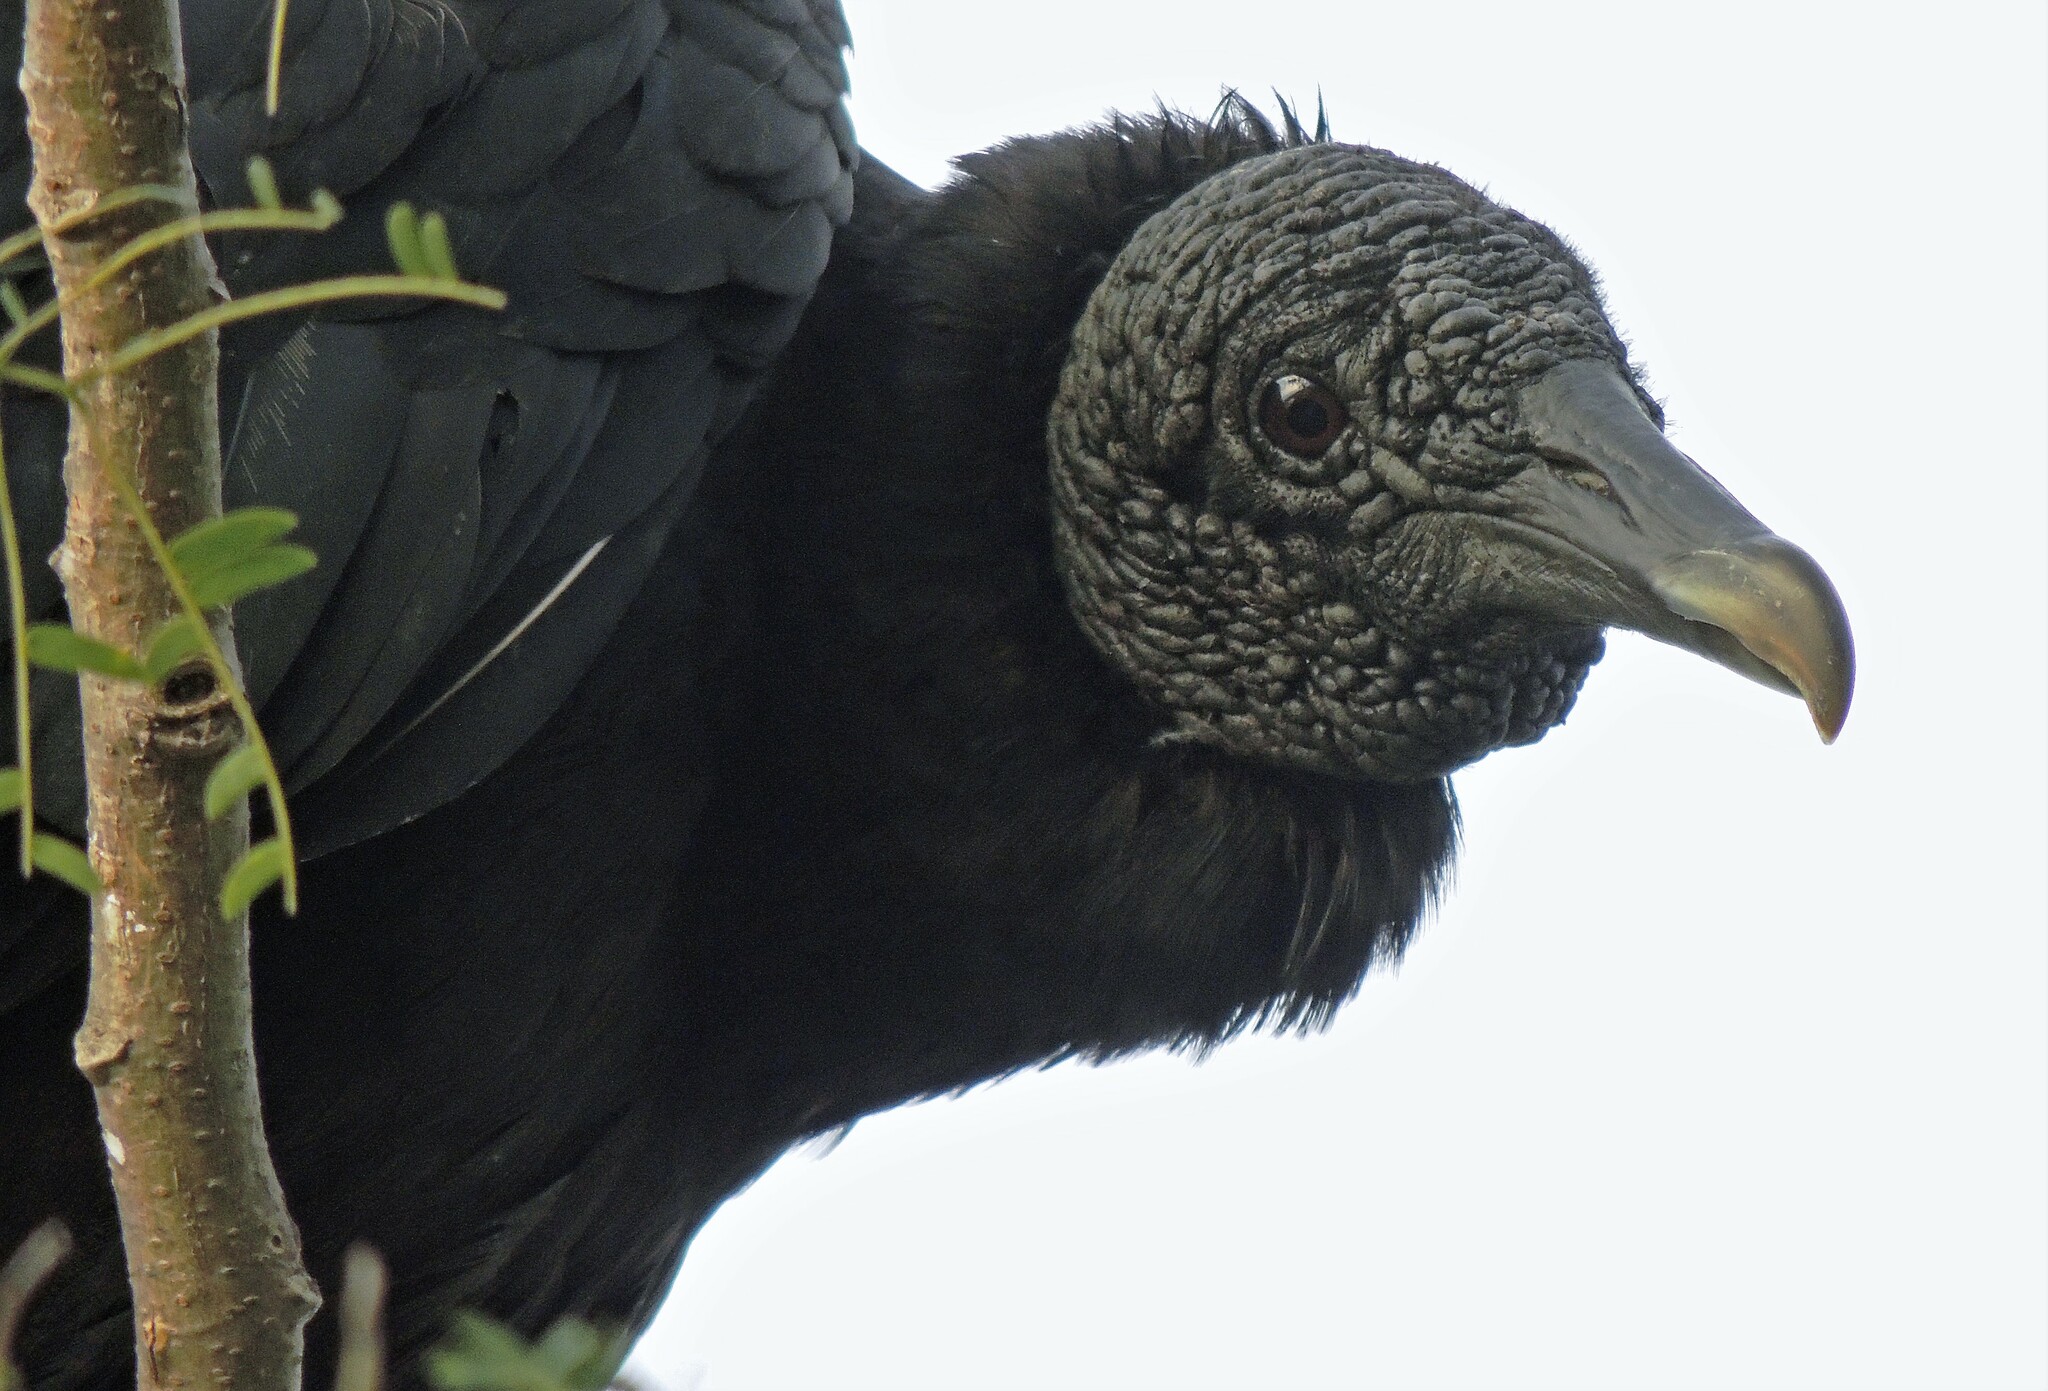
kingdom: Animalia
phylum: Chordata
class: Aves
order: Accipitriformes
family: Cathartidae
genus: Coragyps
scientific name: Coragyps atratus
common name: Black vulture
